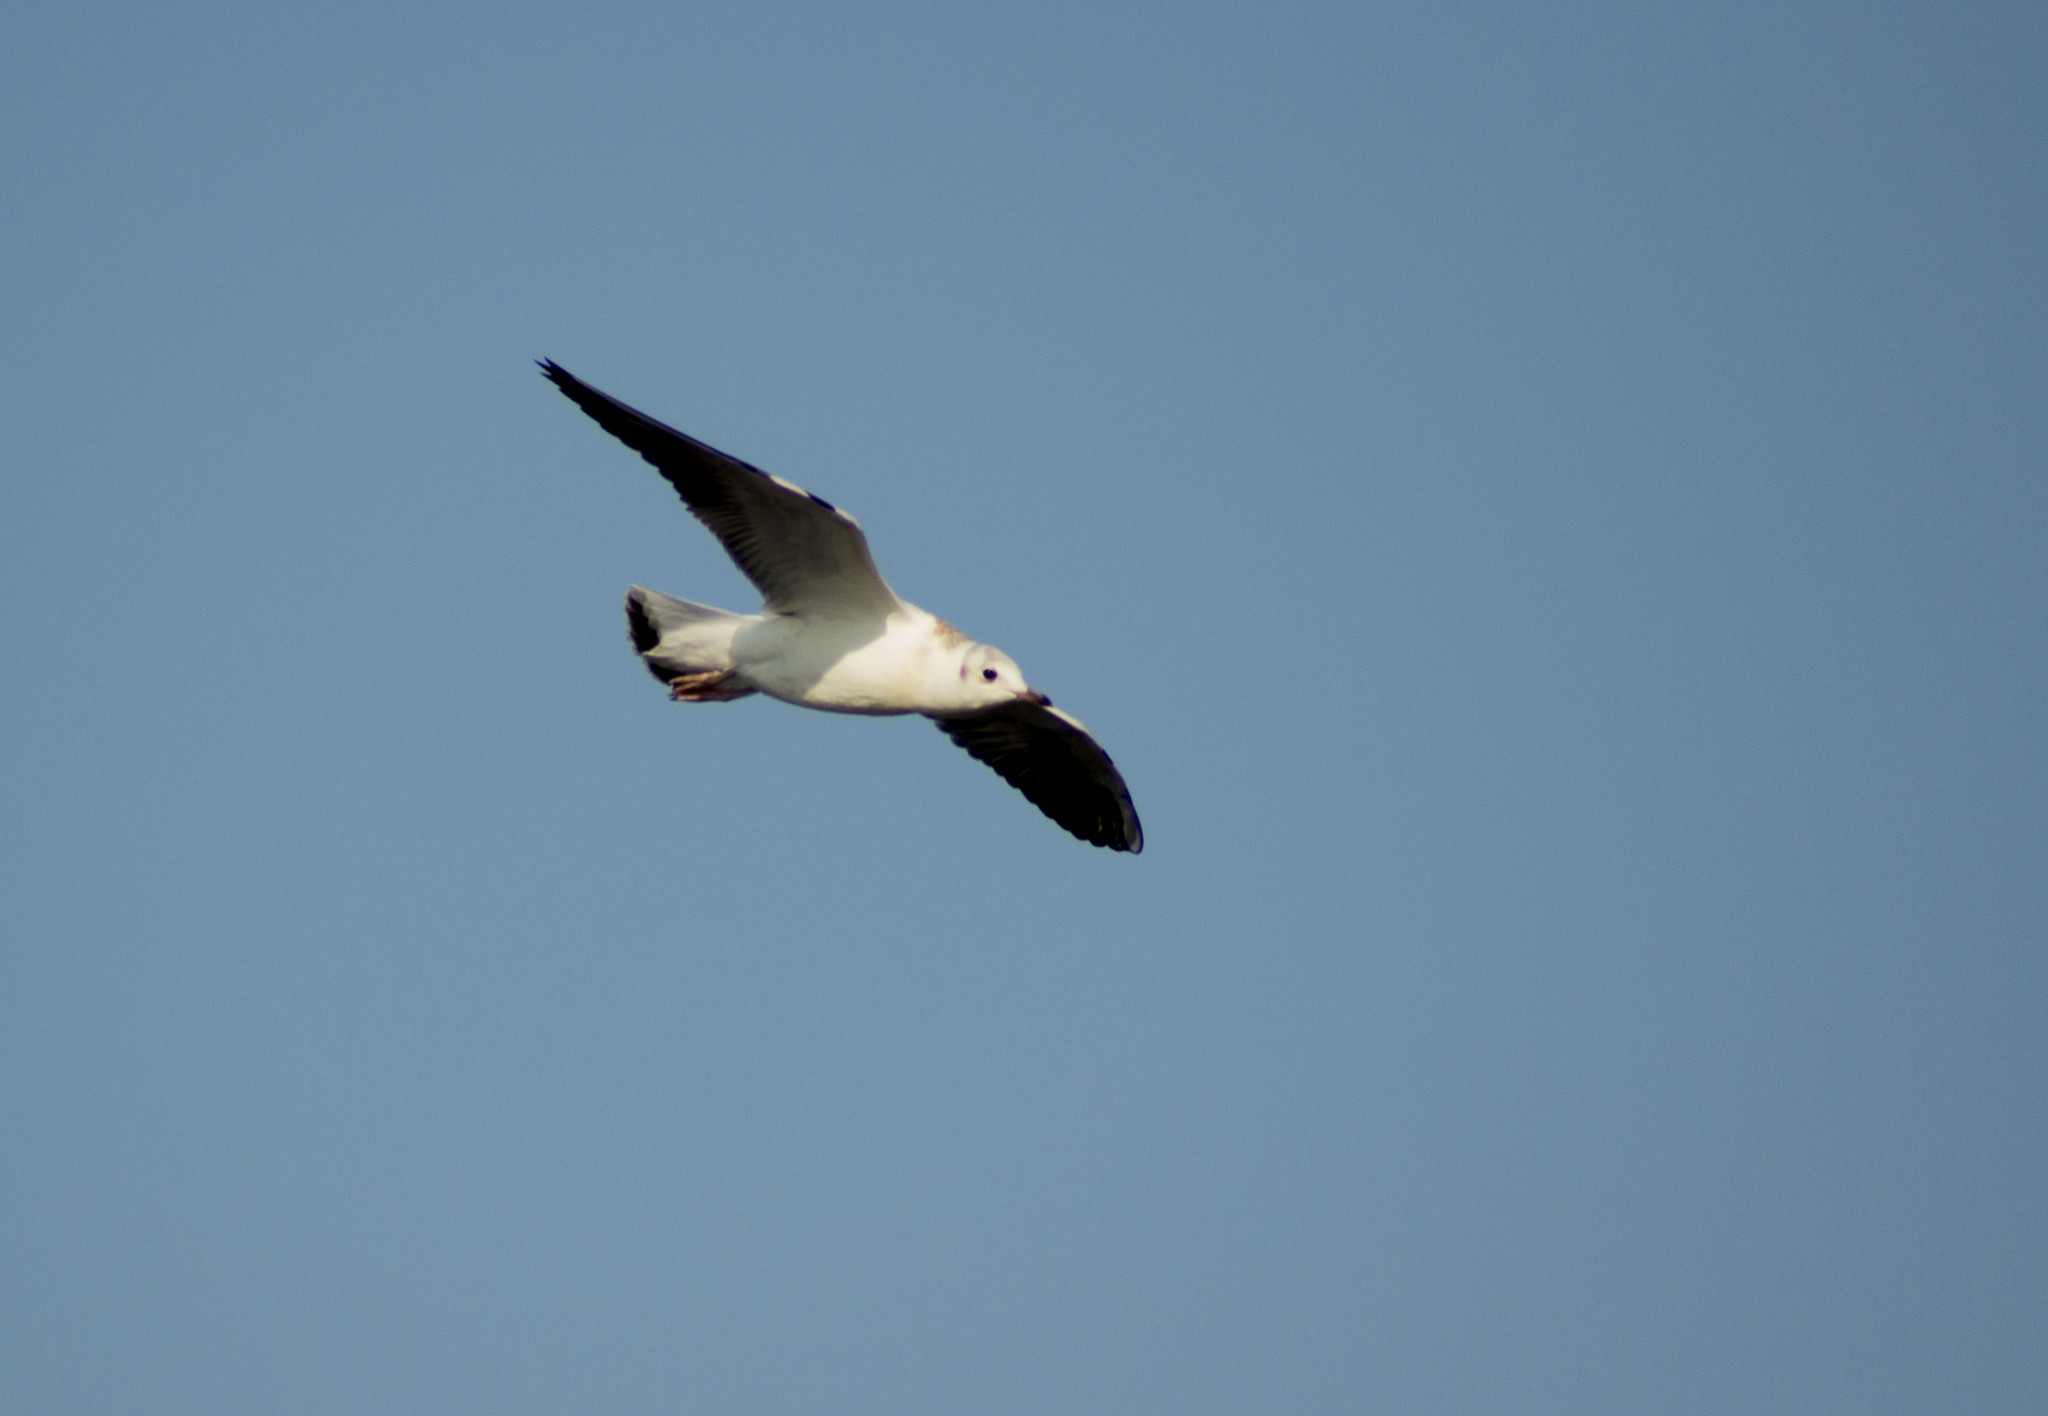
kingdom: Animalia
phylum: Chordata
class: Aves
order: Charadriiformes
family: Laridae
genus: Larus
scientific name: Larus argentatus
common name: Herring gull
